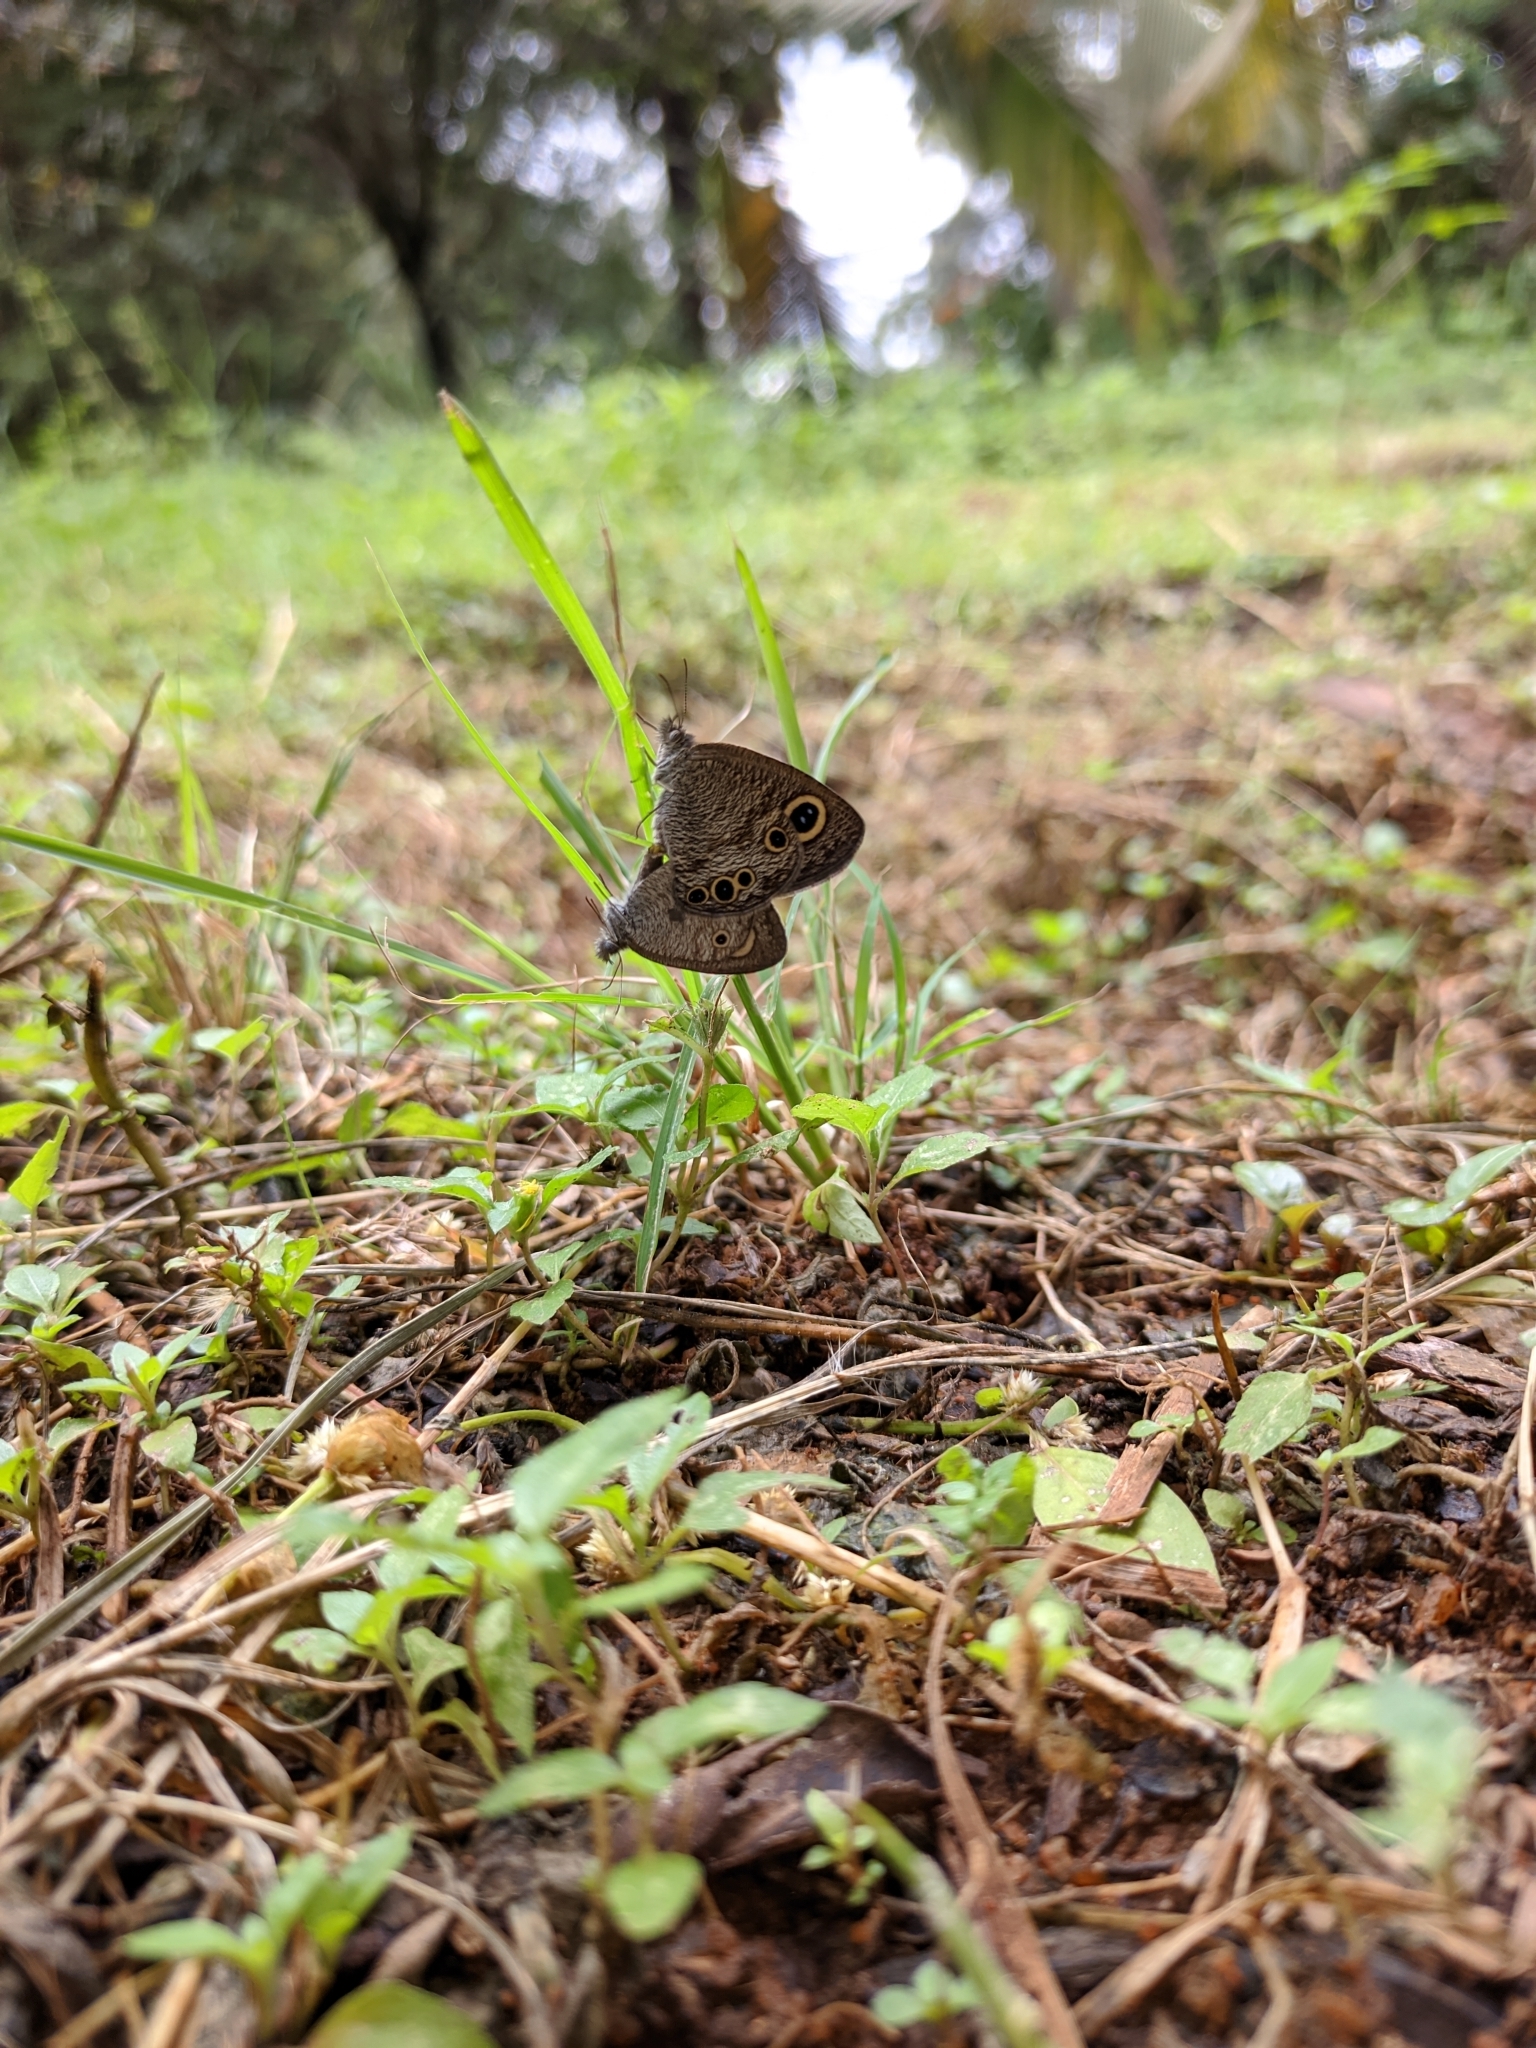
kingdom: Animalia
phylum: Arthropoda
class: Insecta
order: Lepidoptera
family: Nymphalidae
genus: Ypthima
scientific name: Ypthima huebneri
